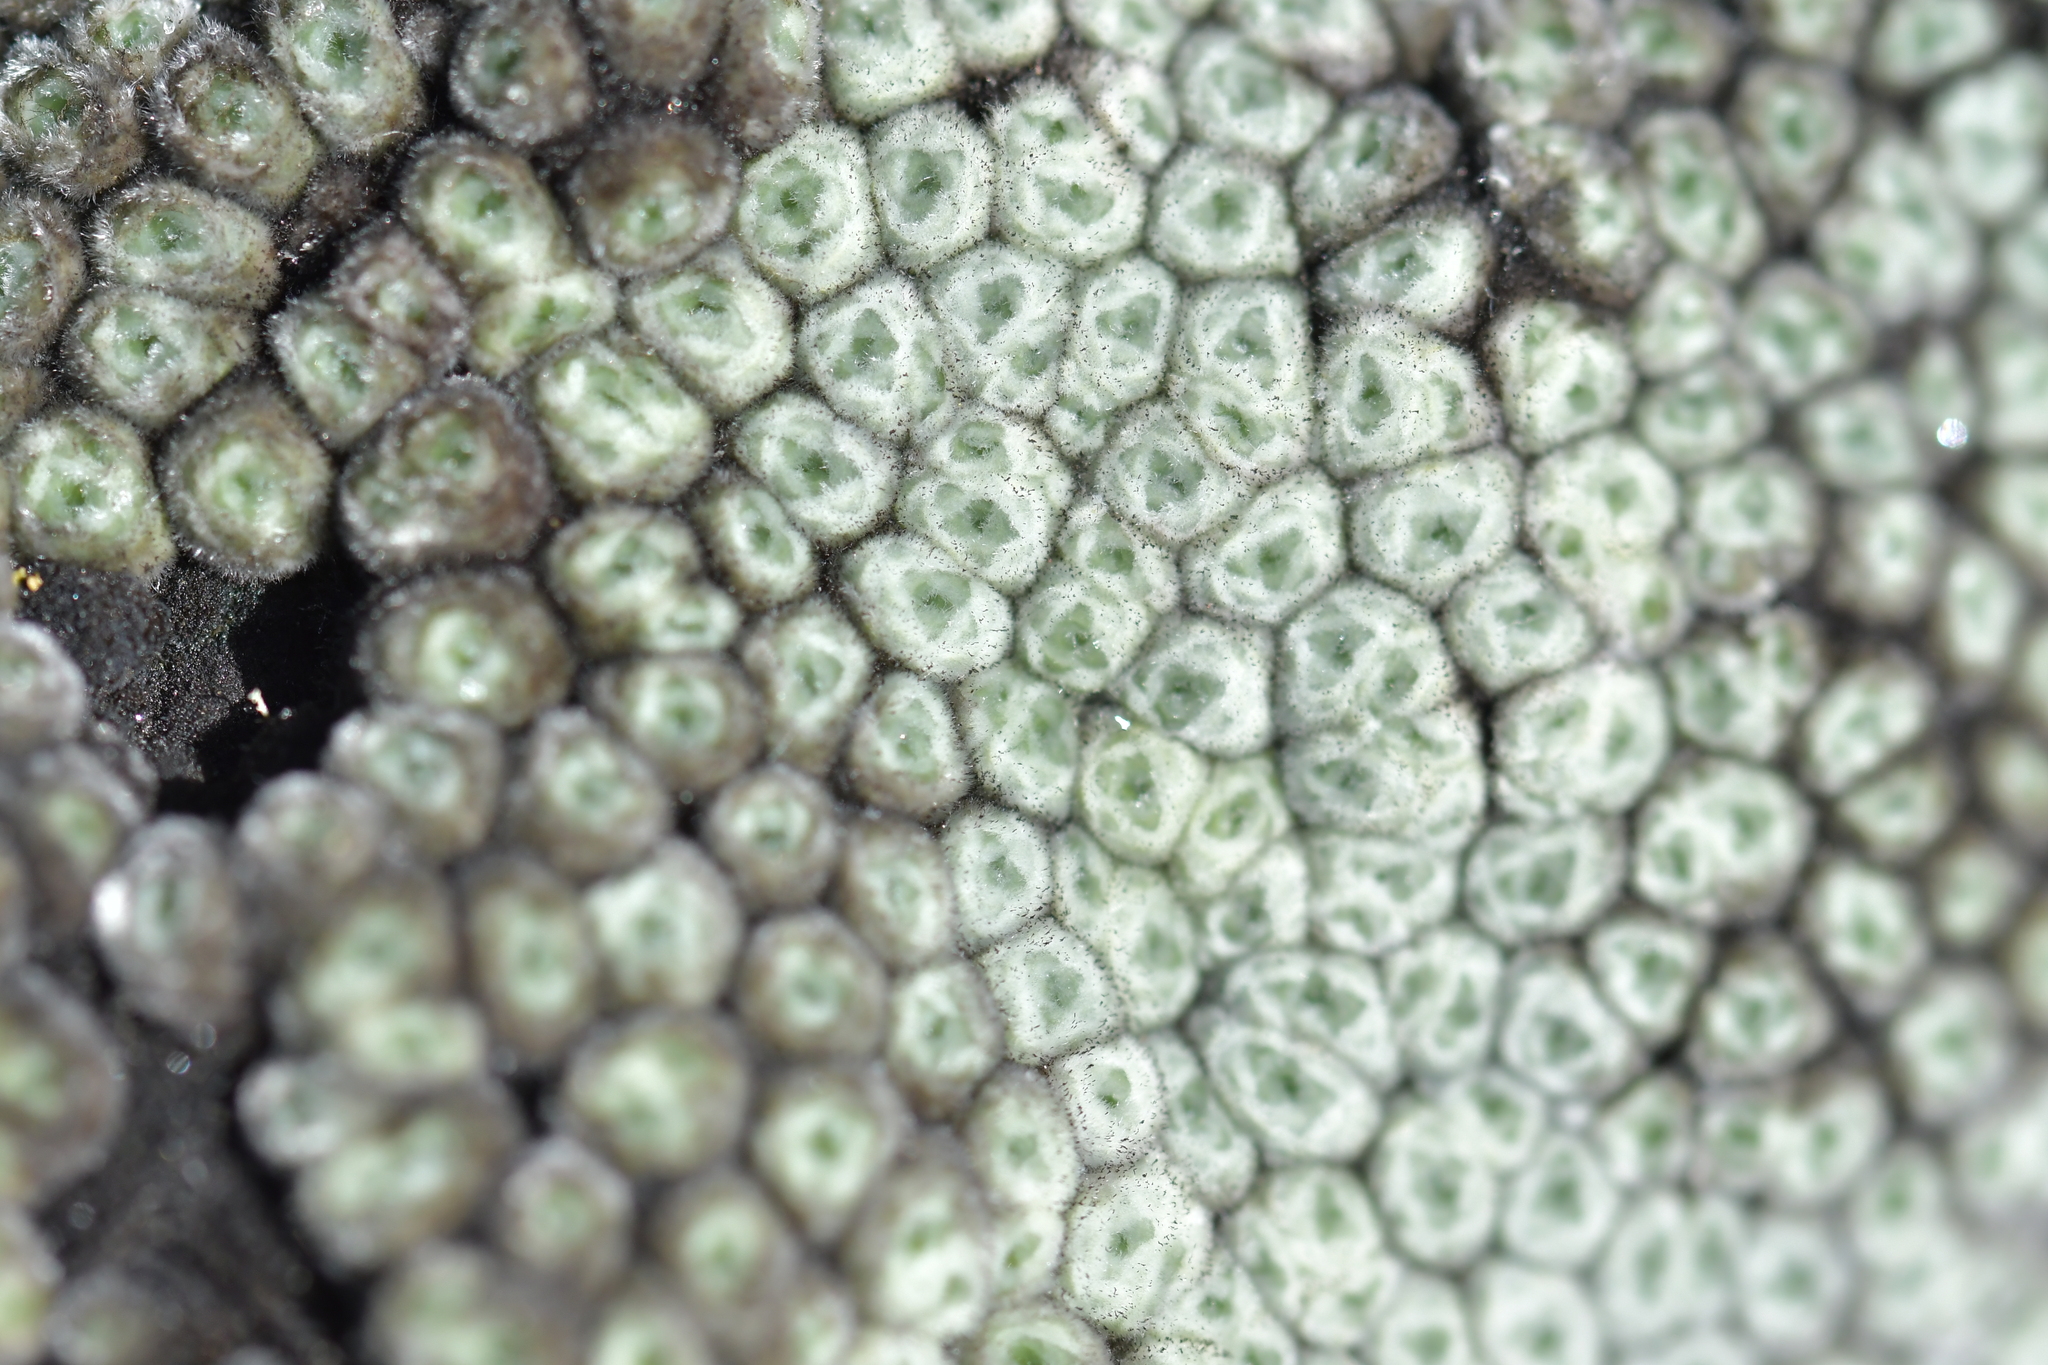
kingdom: Plantae
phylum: Tracheophyta
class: Magnoliopsida
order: Asterales
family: Asteraceae
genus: Raoulia
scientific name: Raoulia eximia
